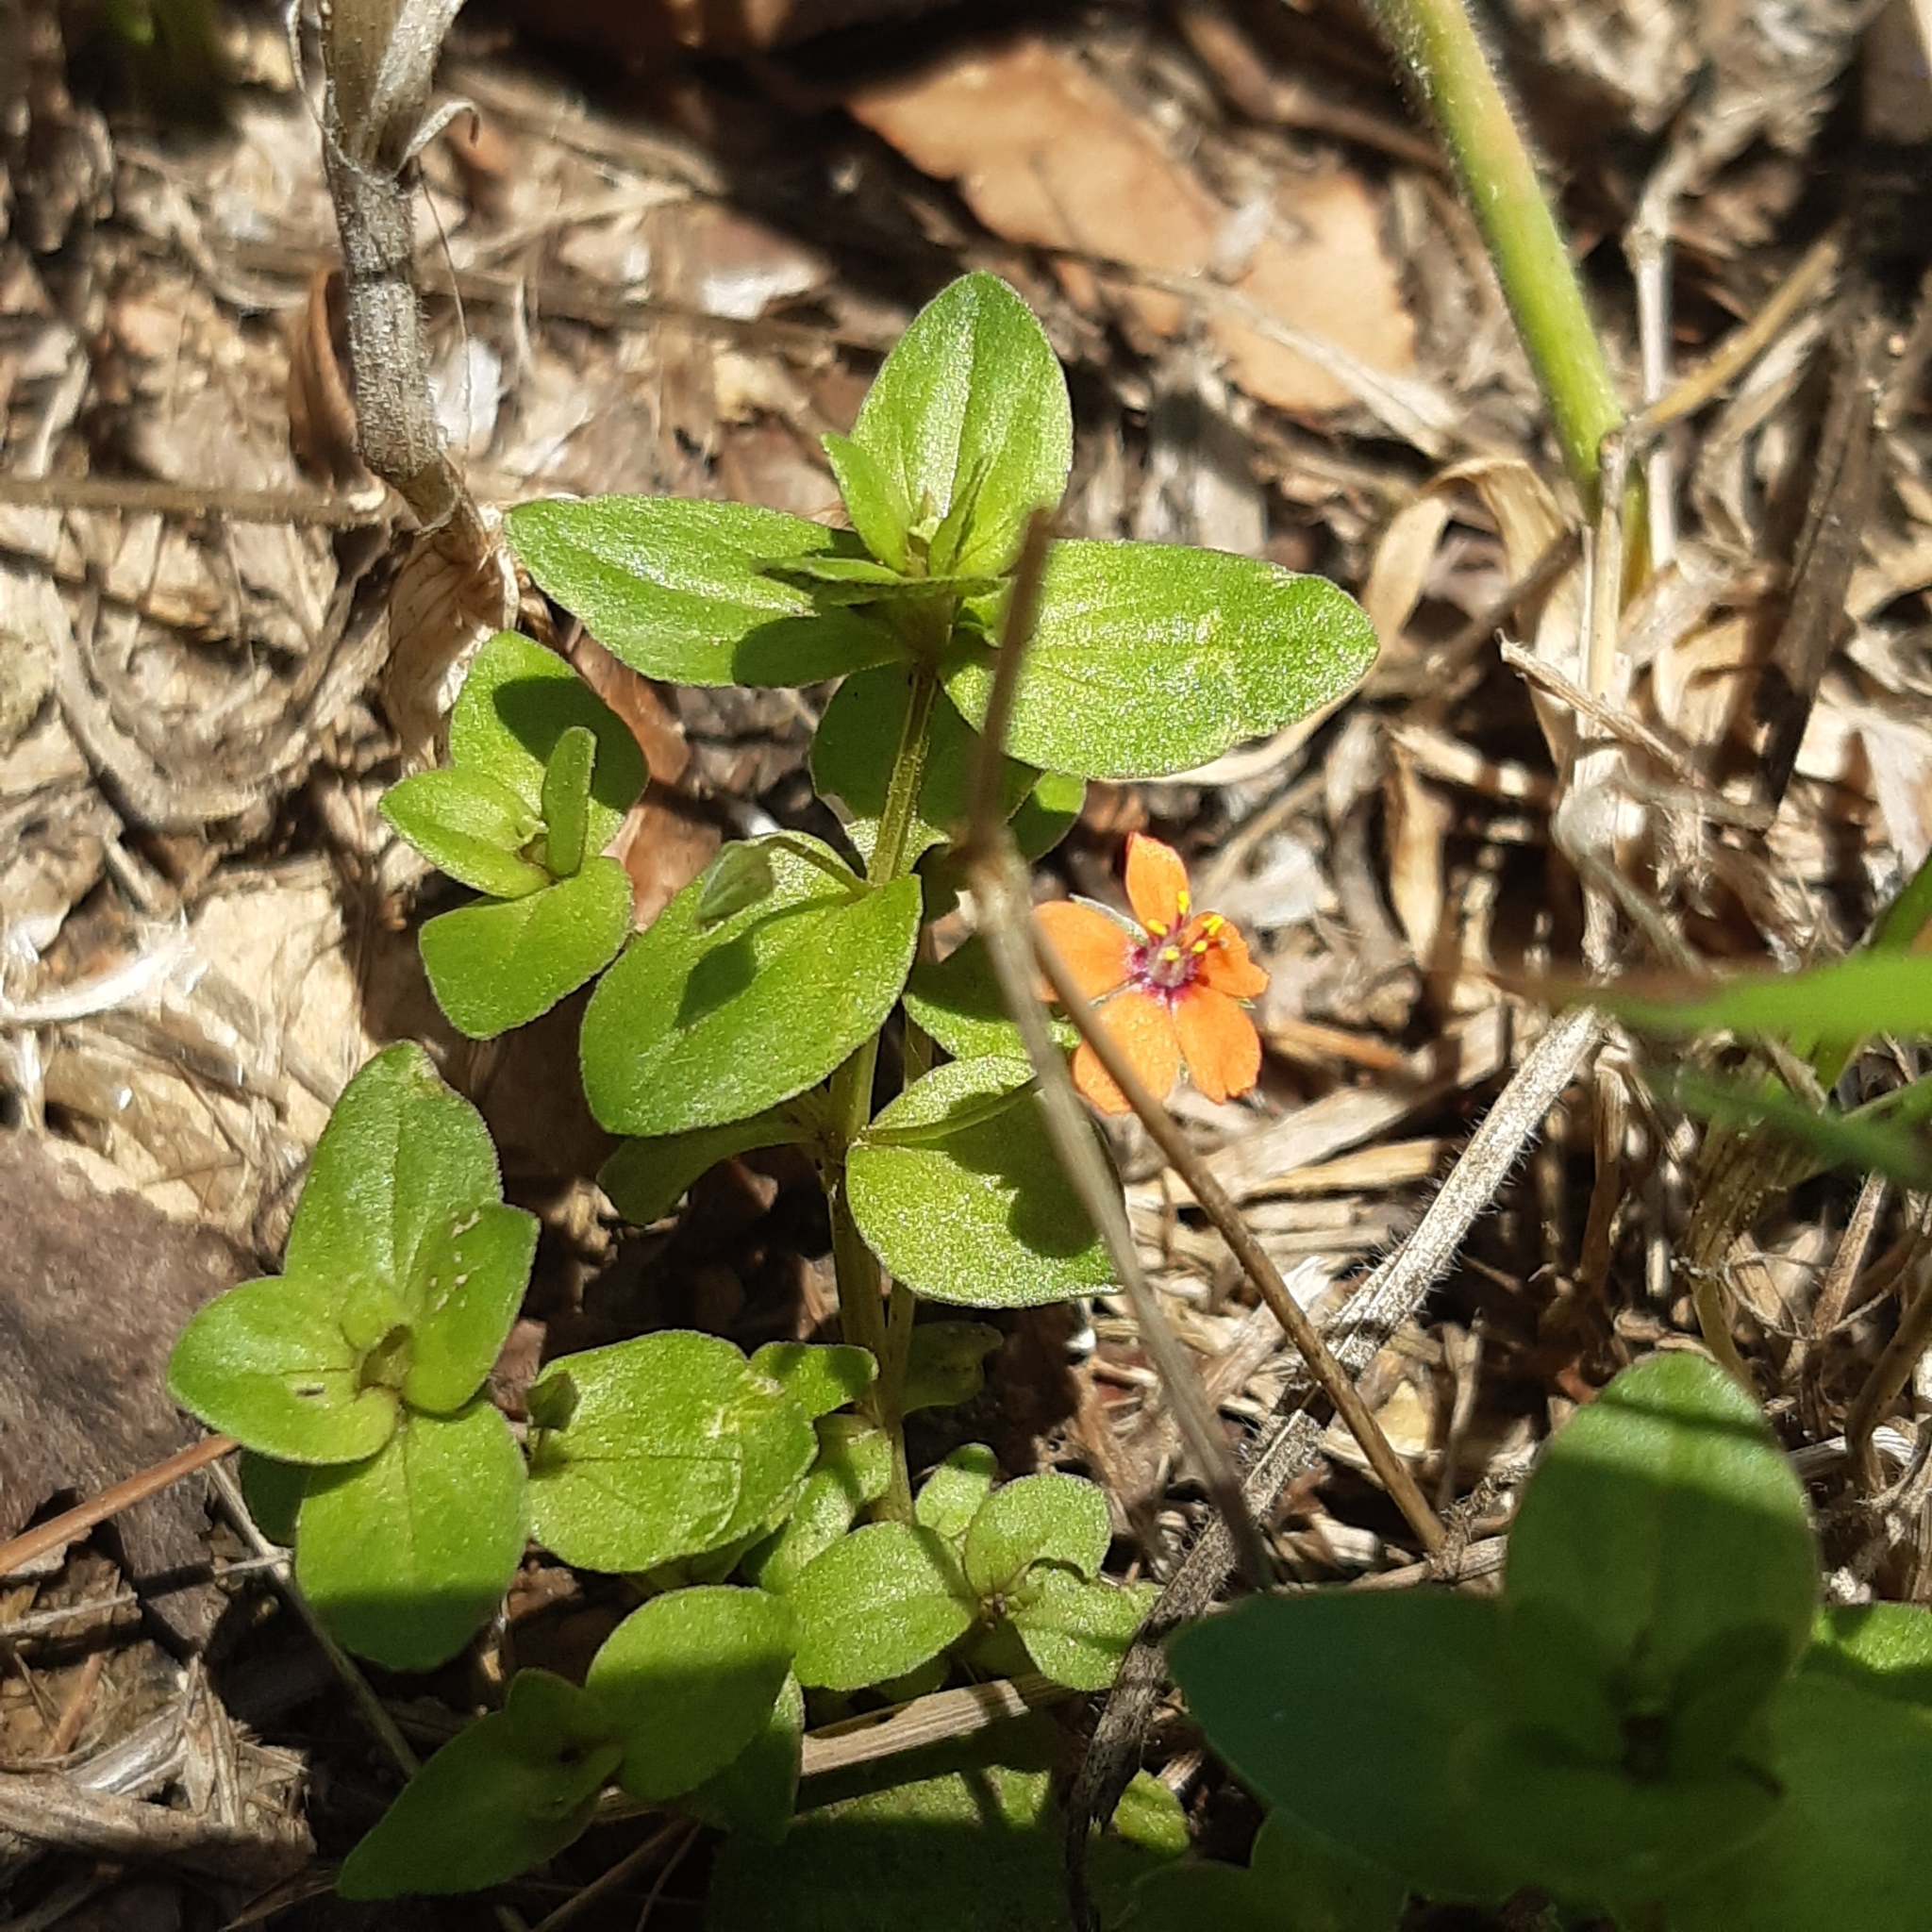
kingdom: Plantae
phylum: Tracheophyta
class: Magnoliopsida
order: Ericales
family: Primulaceae
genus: Lysimachia
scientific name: Lysimachia arvensis
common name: Scarlet pimpernel
